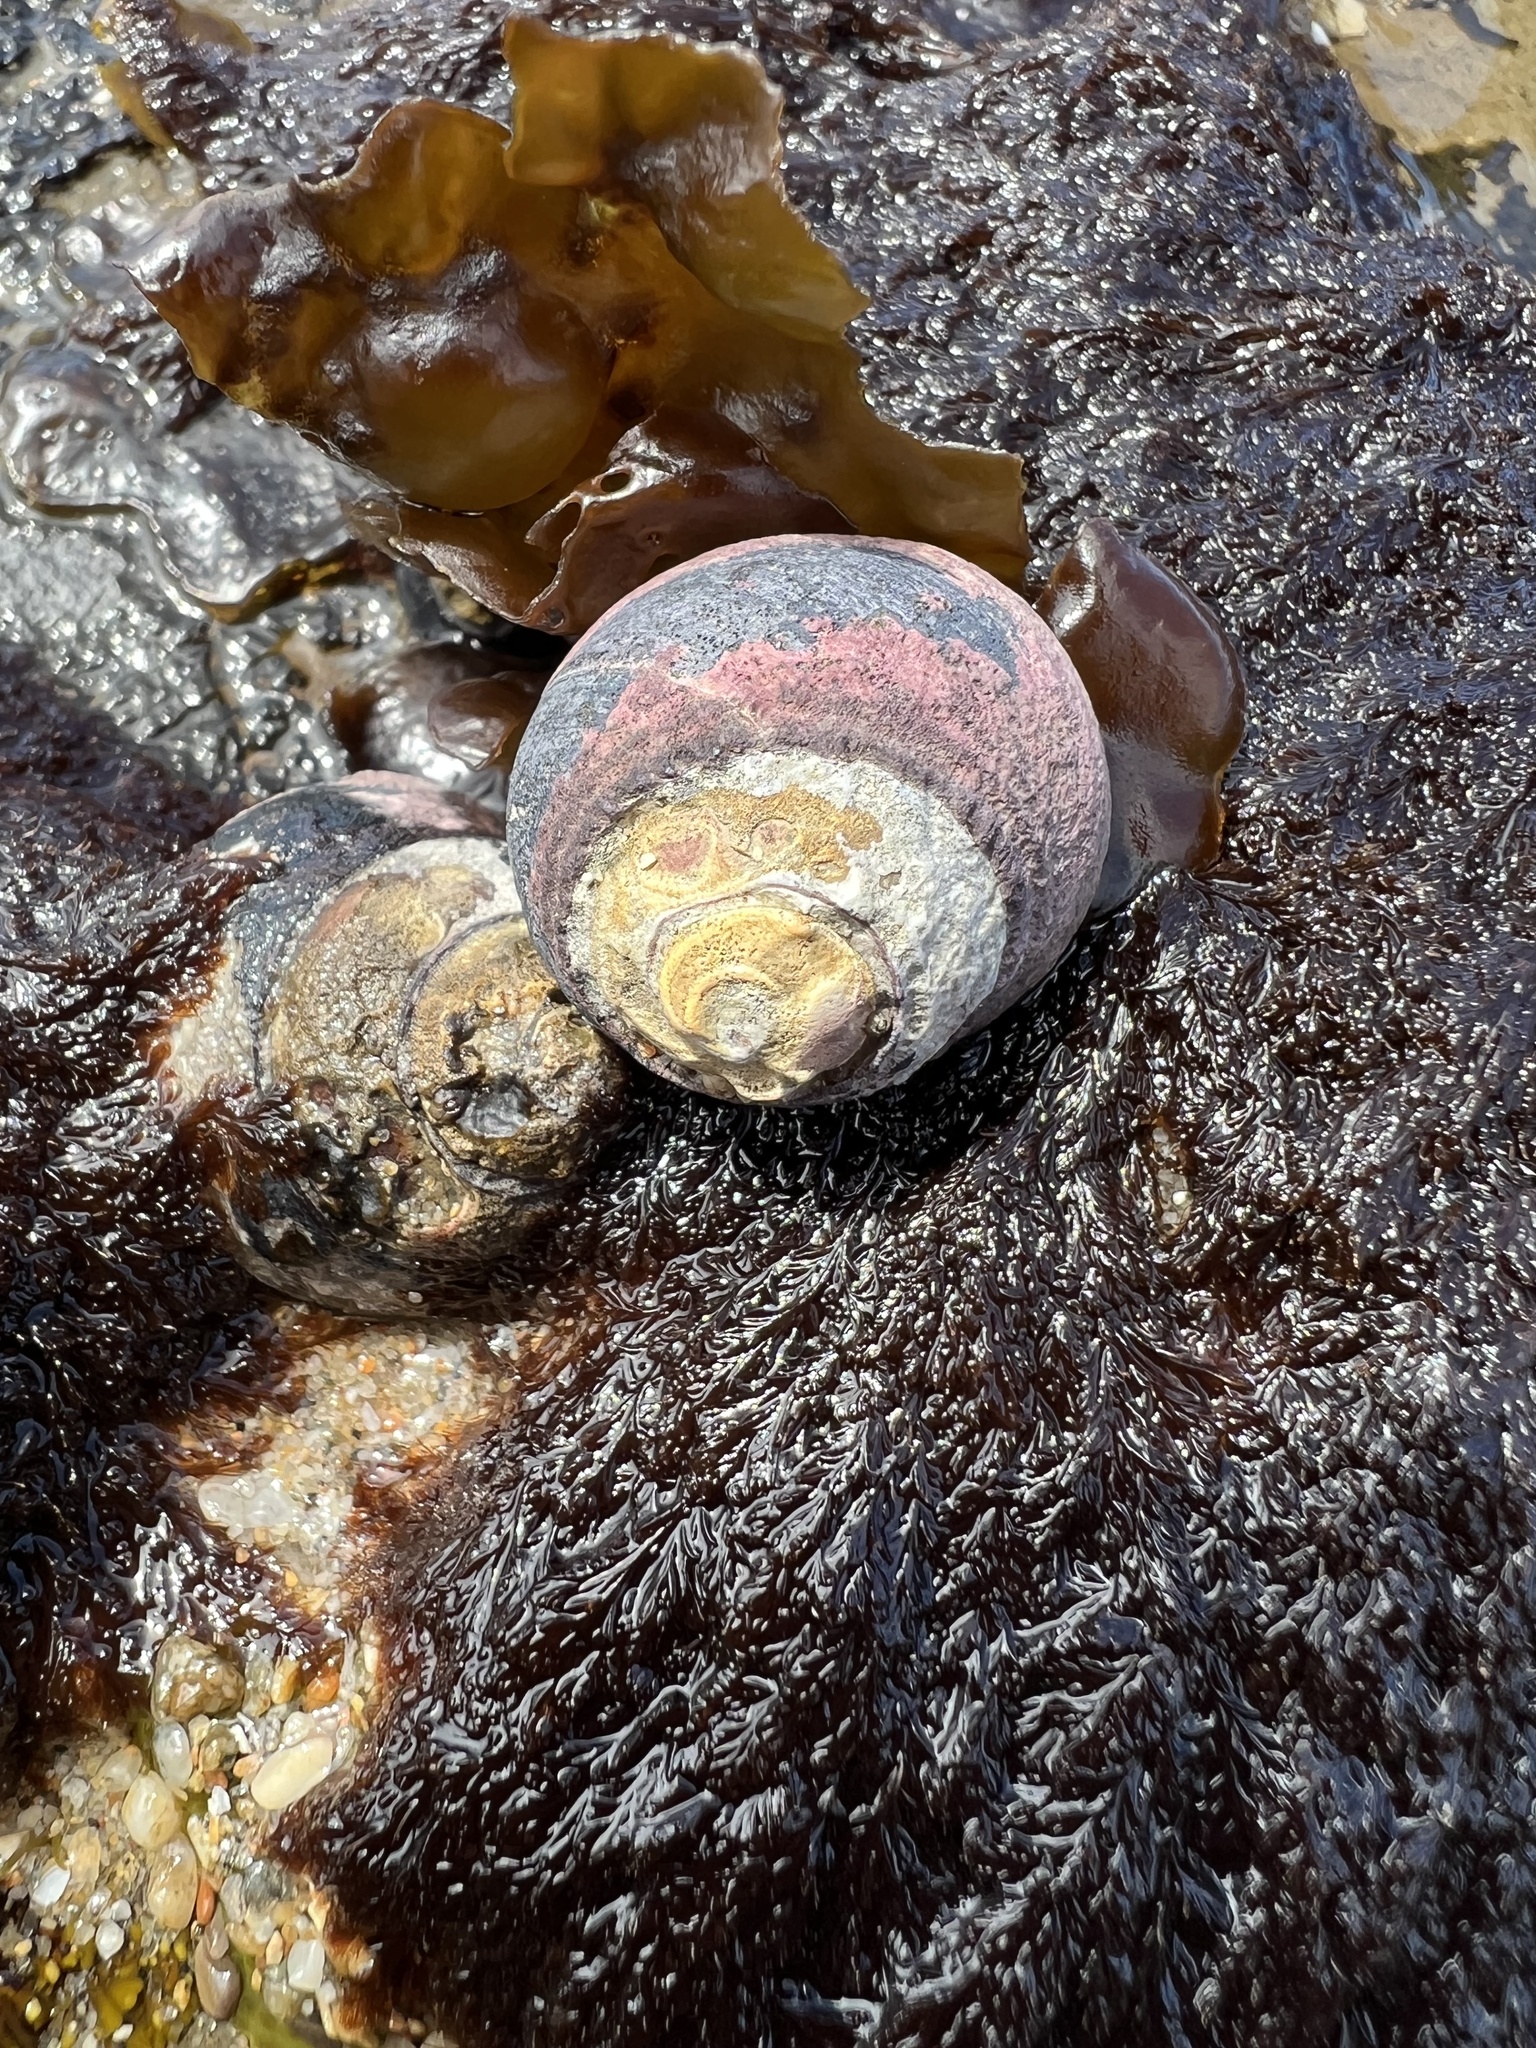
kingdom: Animalia
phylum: Mollusca
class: Gastropoda
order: Trochida
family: Tegulidae
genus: Tegula
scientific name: Tegula funebralis
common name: Black tegula
